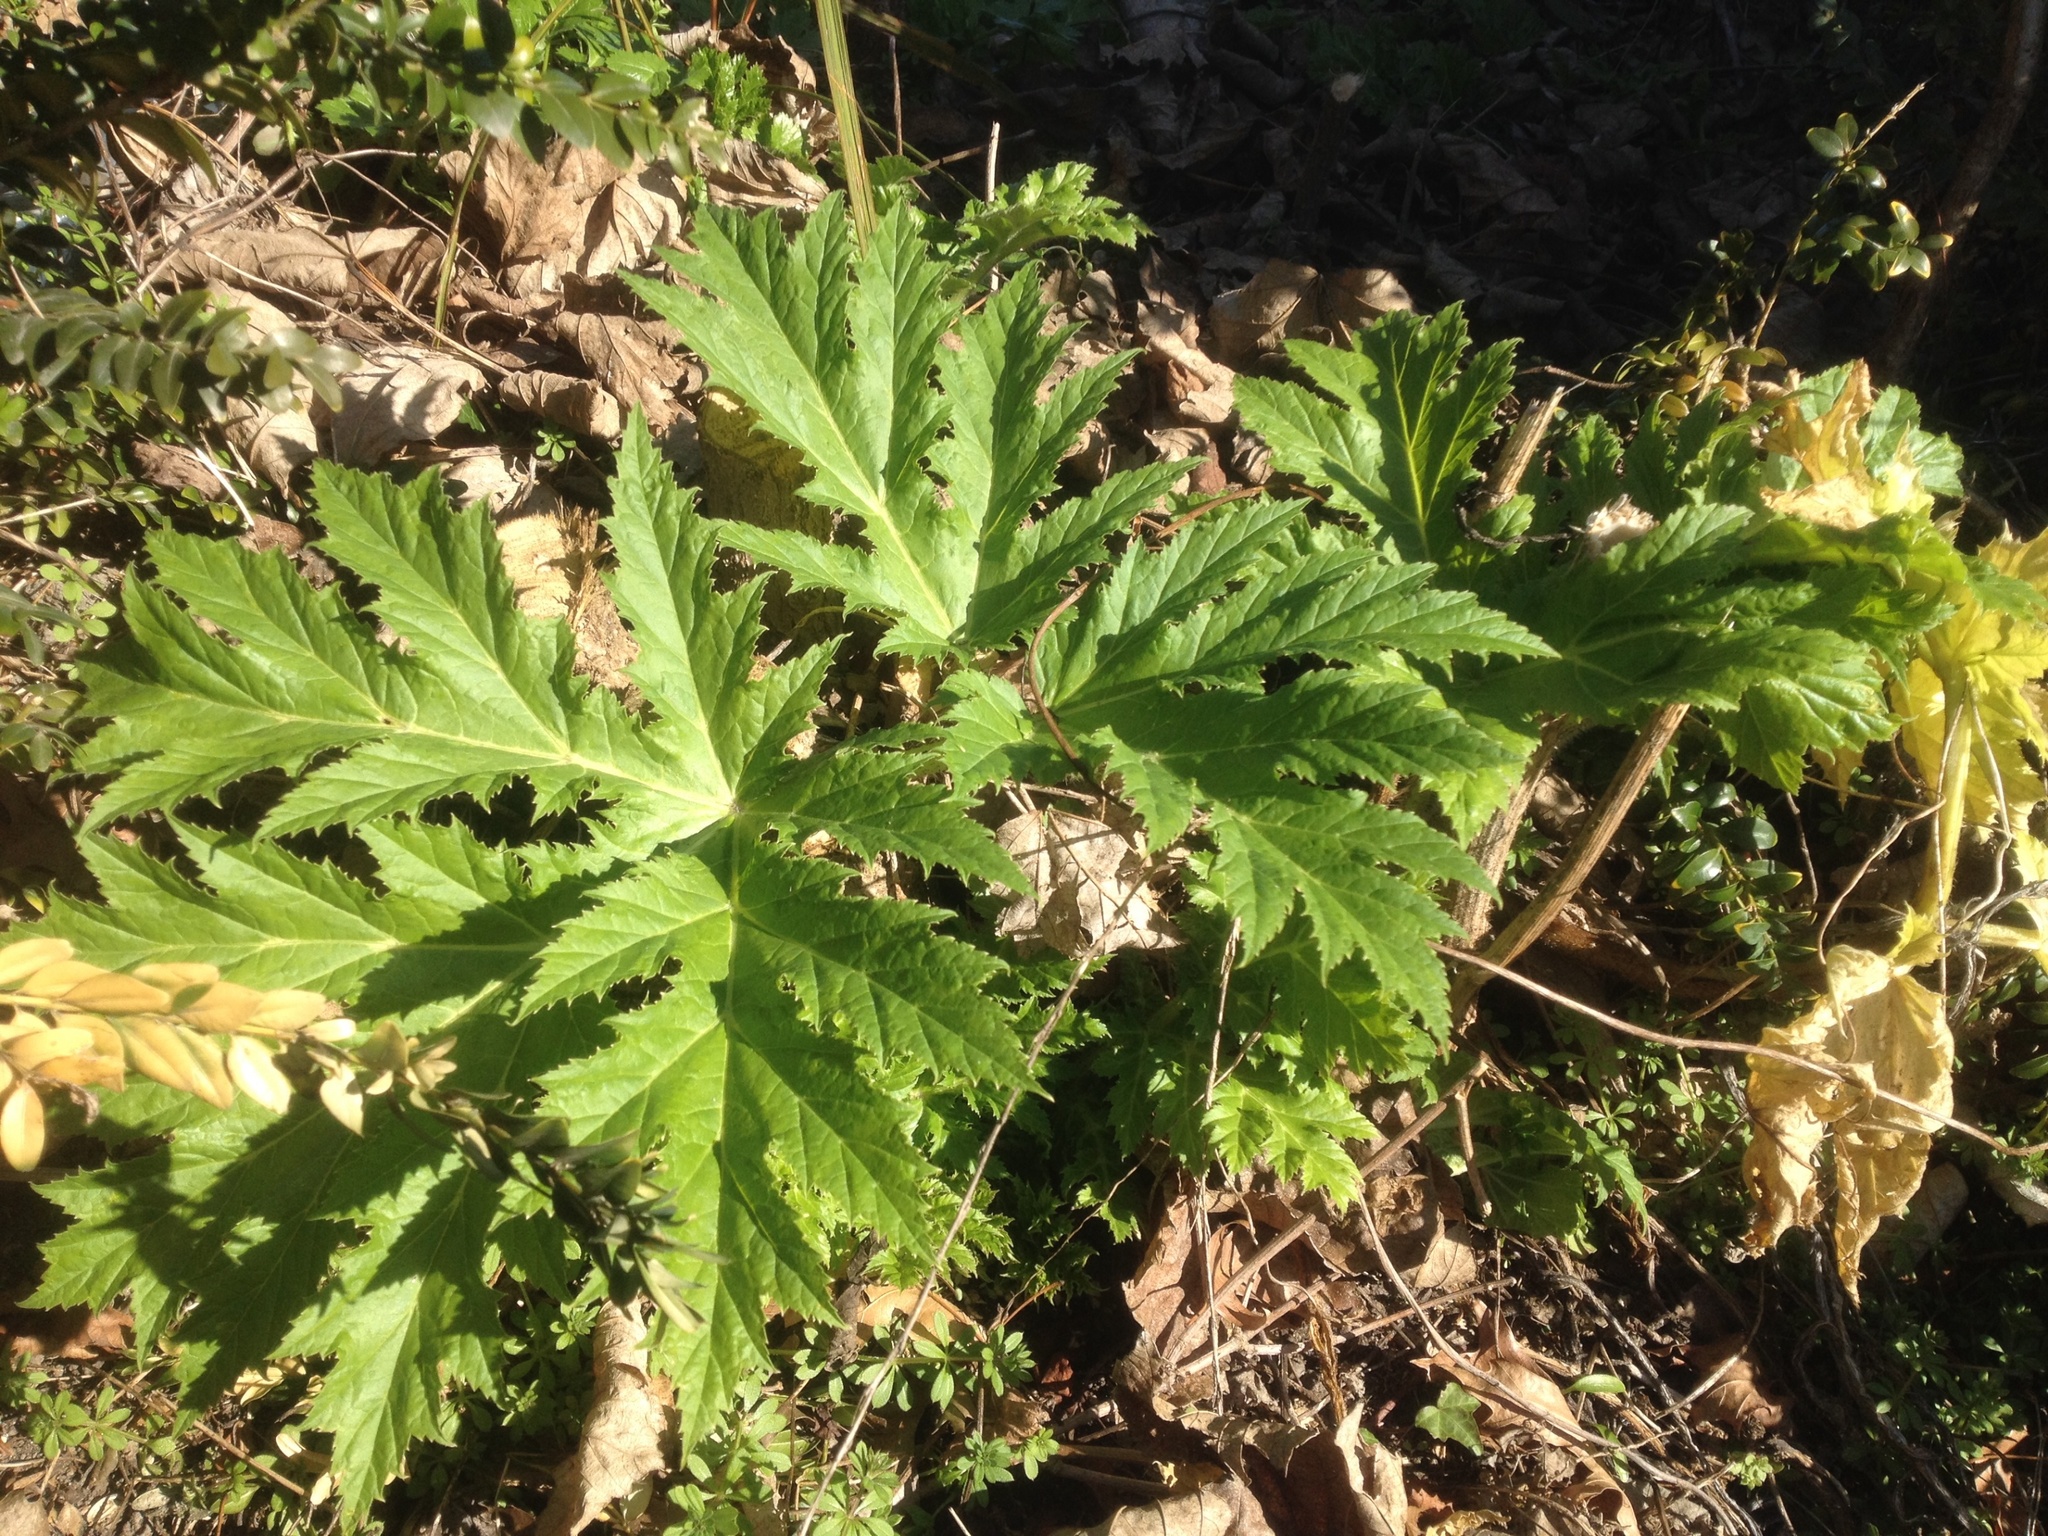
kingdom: Plantae
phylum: Tracheophyta
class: Magnoliopsida
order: Apiales
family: Apiaceae
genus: Heracleum
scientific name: Heracleum mantegazzianum
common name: Giant hogweed
